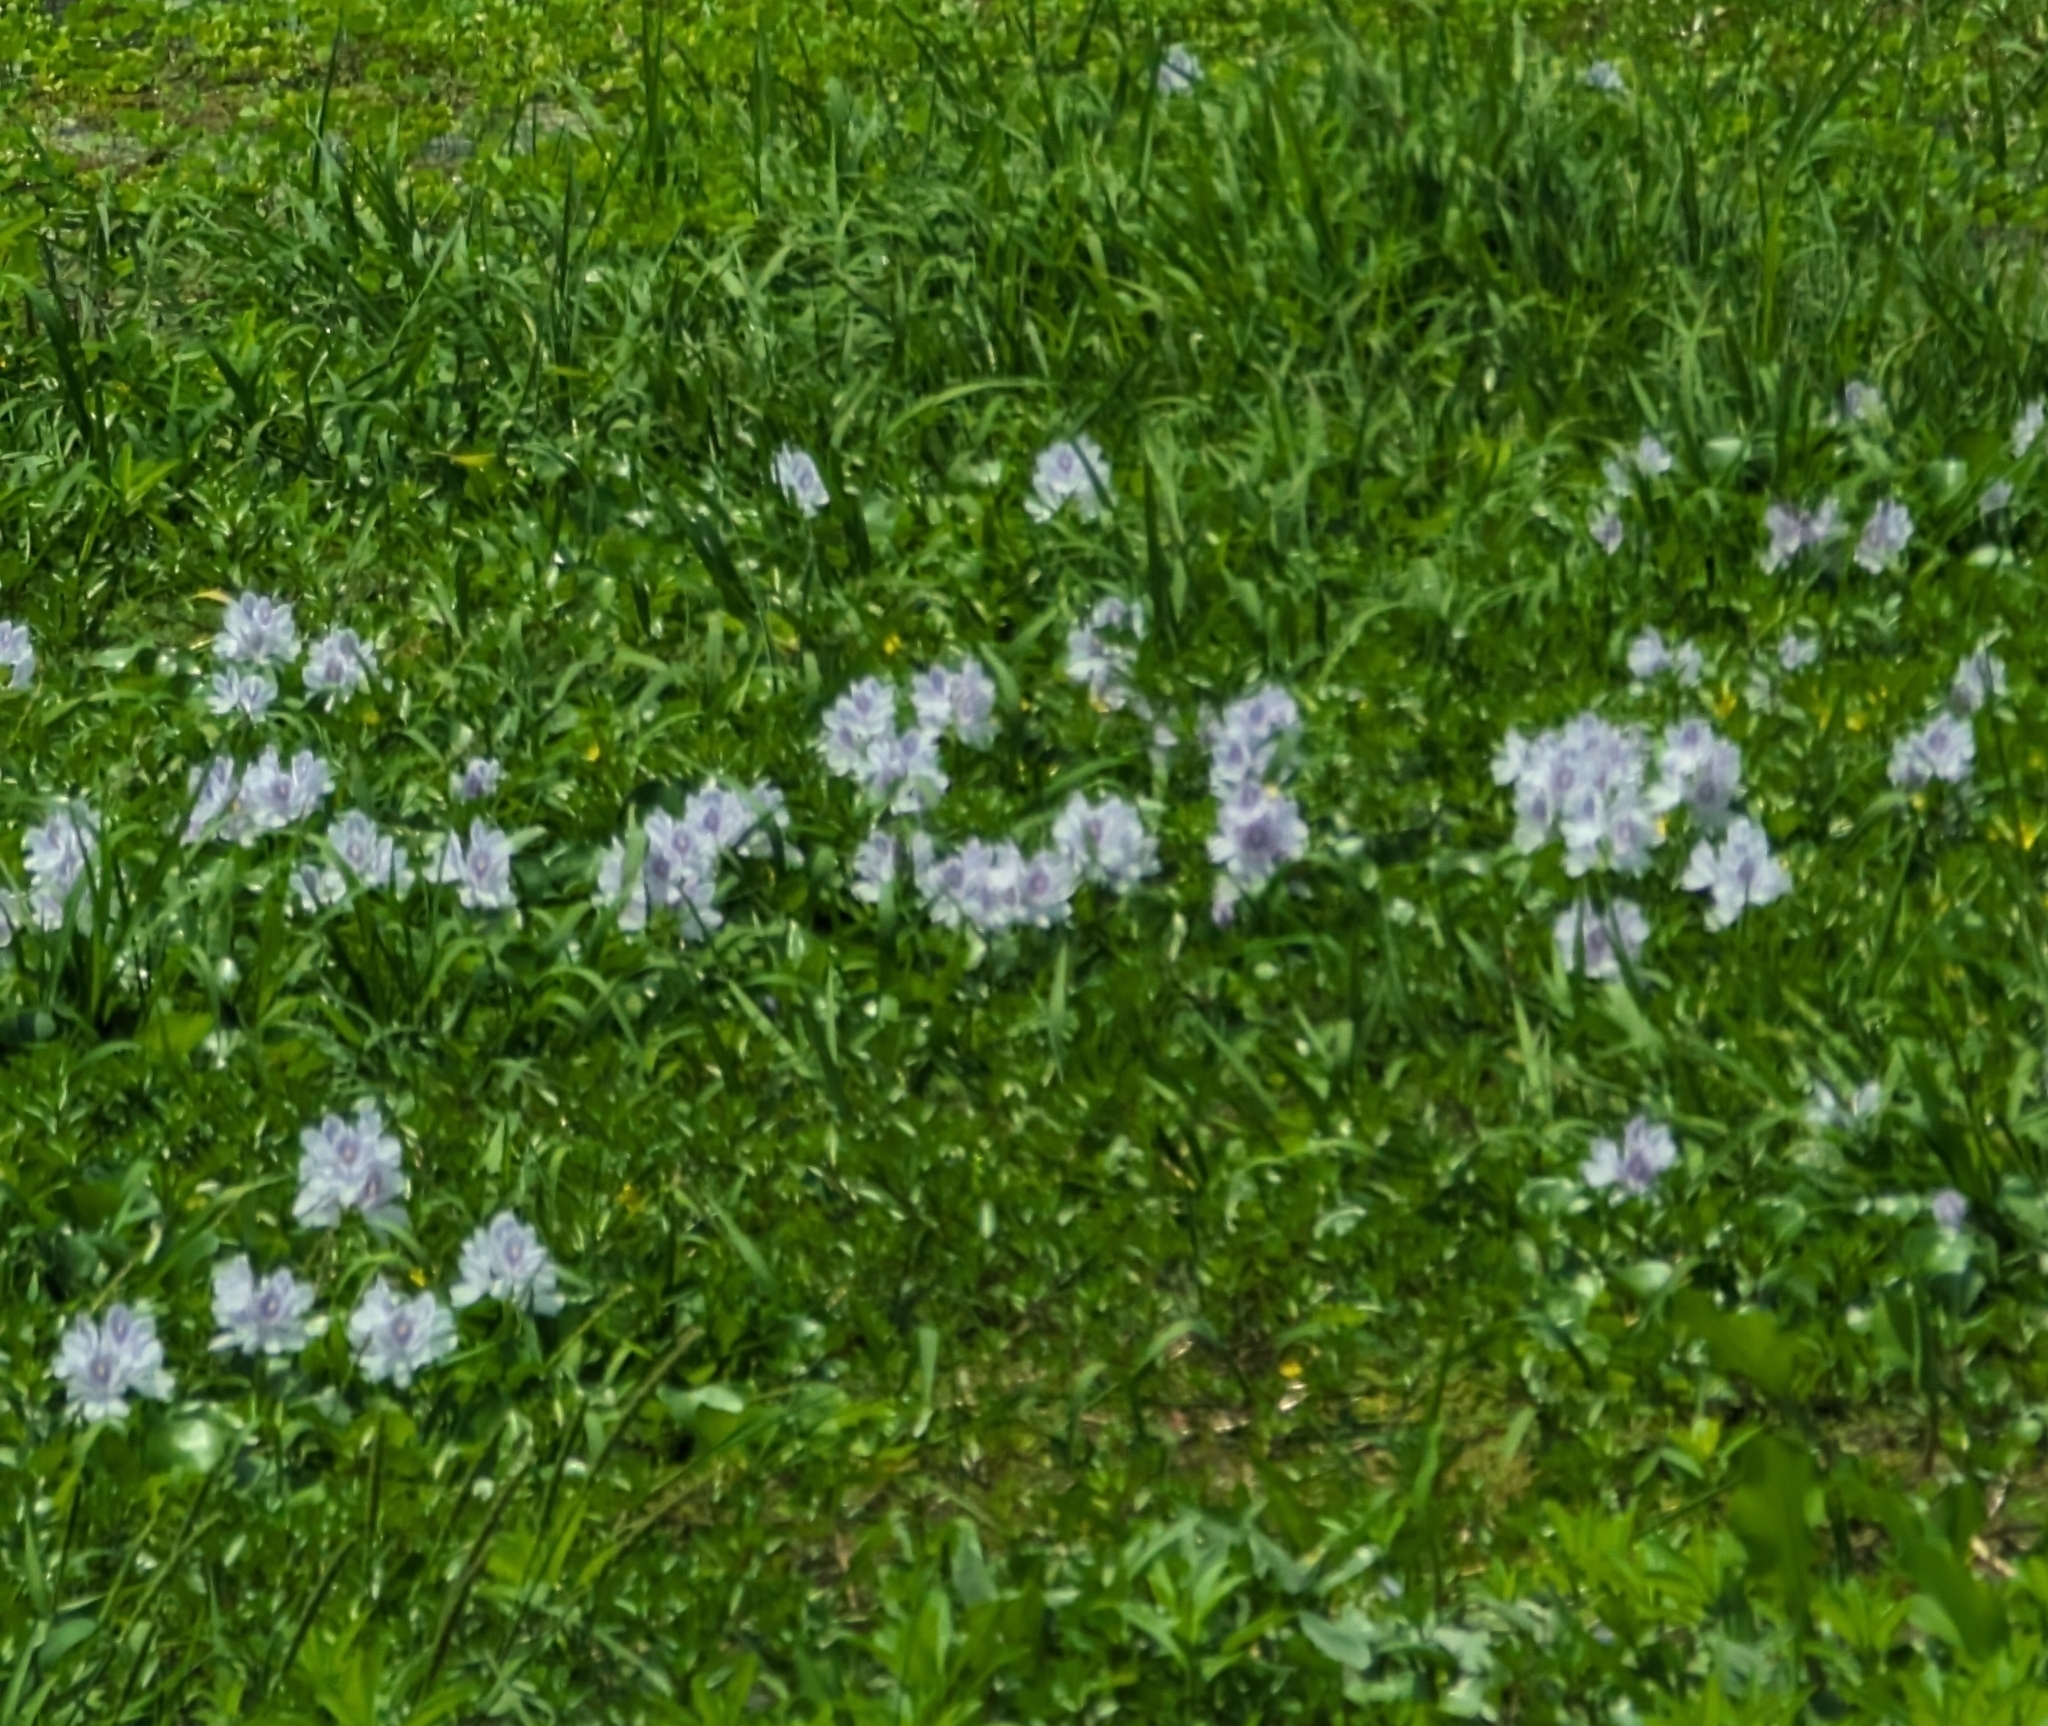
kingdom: Plantae
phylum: Tracheophyta
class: Liliopsida
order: Commelinales
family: Pontederiaceae
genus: Pontederia
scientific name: Pontederia crassipes
